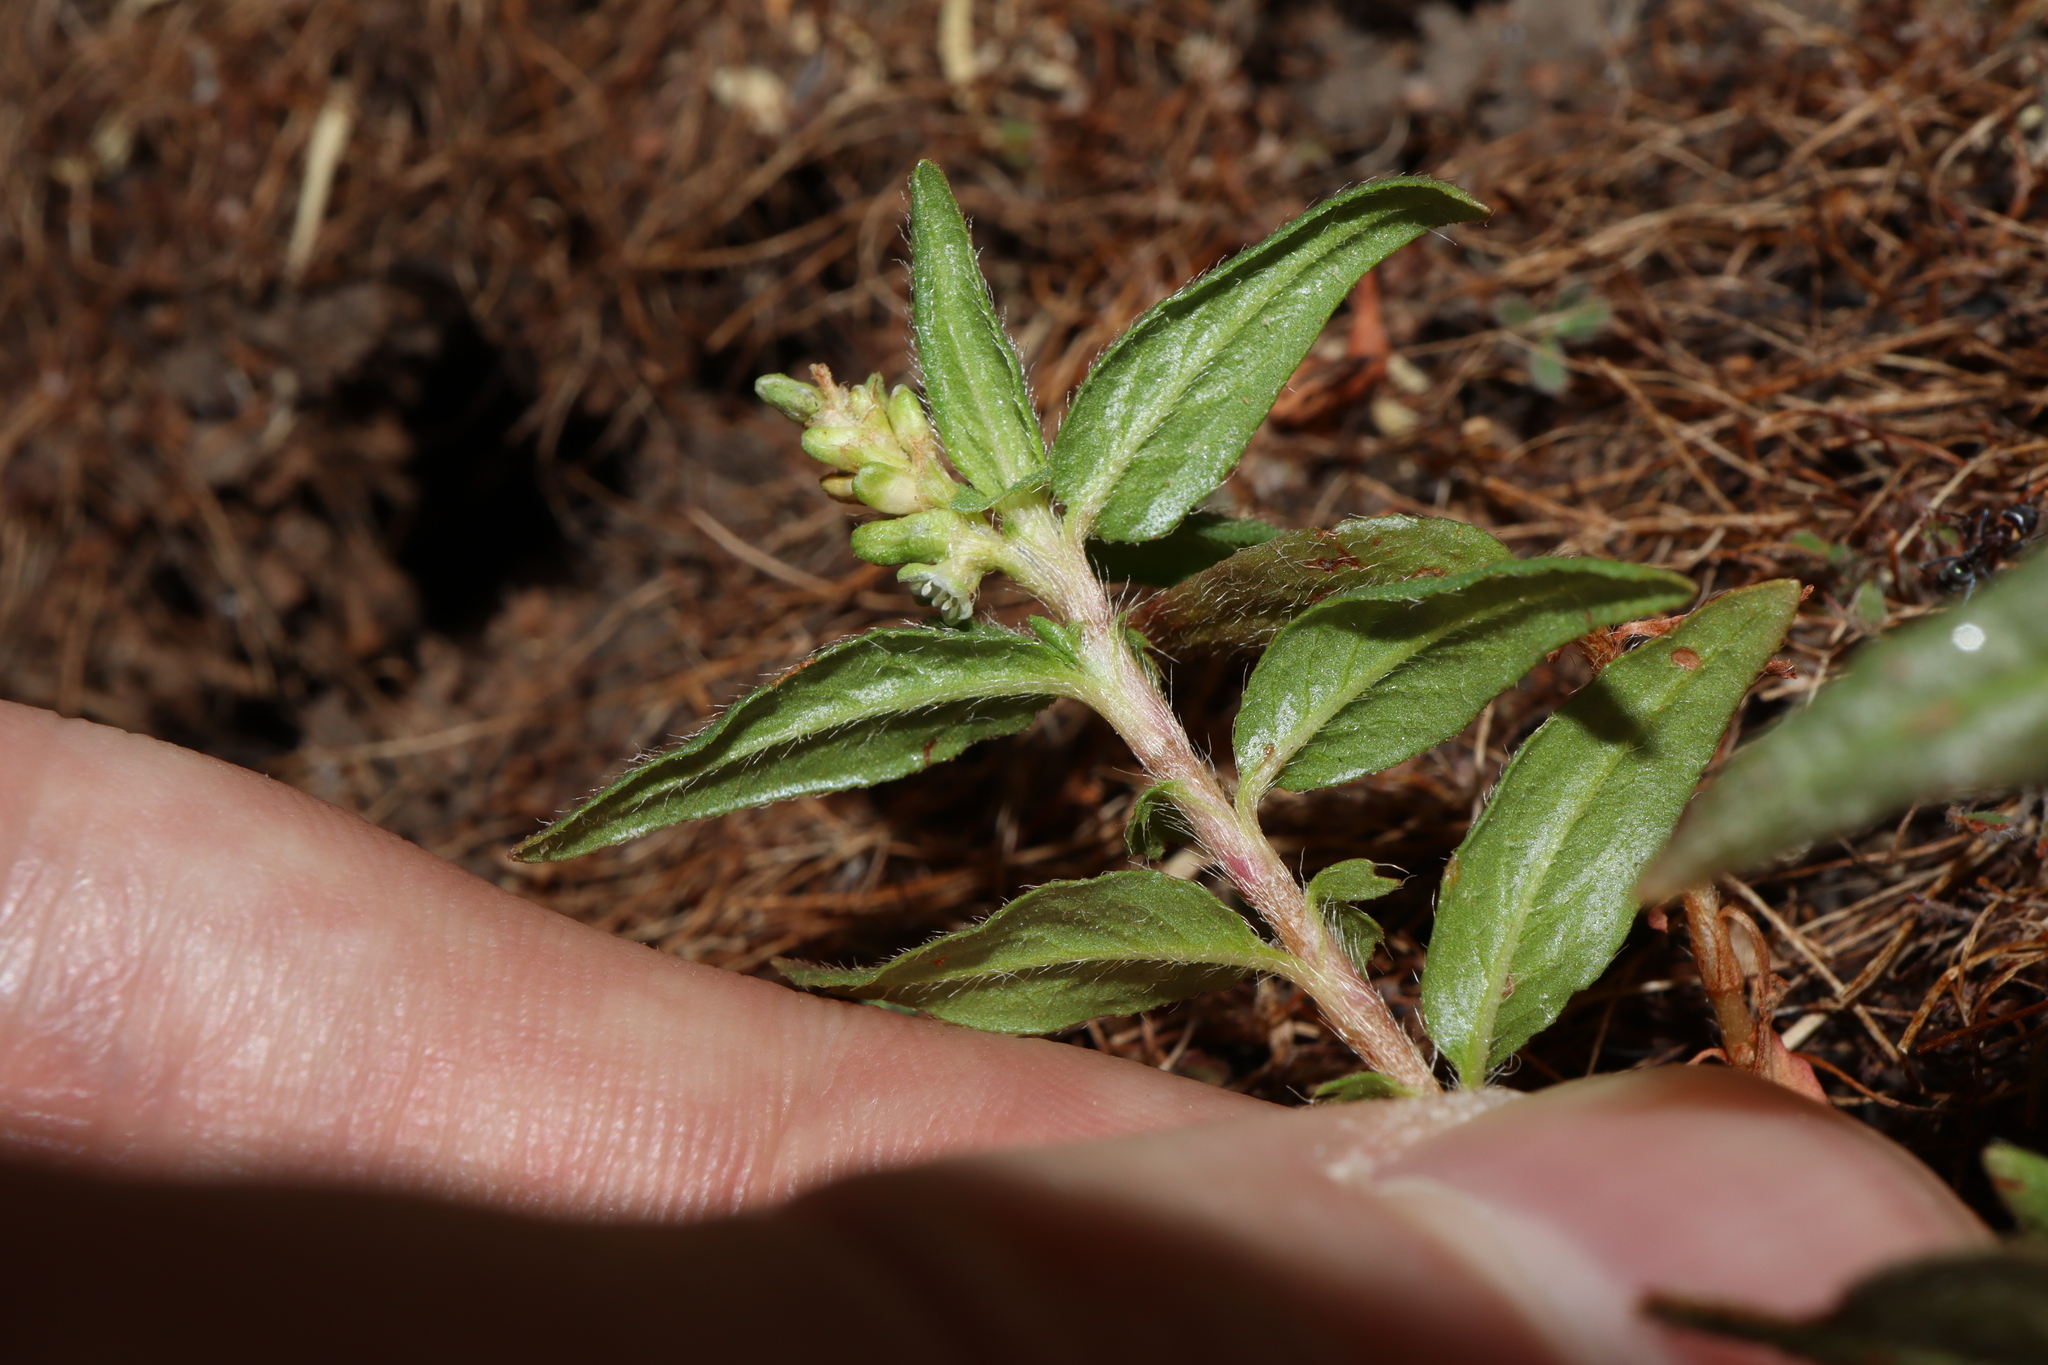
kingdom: Plantae
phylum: Tracheophyta
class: Magnoliopsida
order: Caryophyllales
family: Polygonaceae
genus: Persicaria
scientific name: Persicaria prostrata
